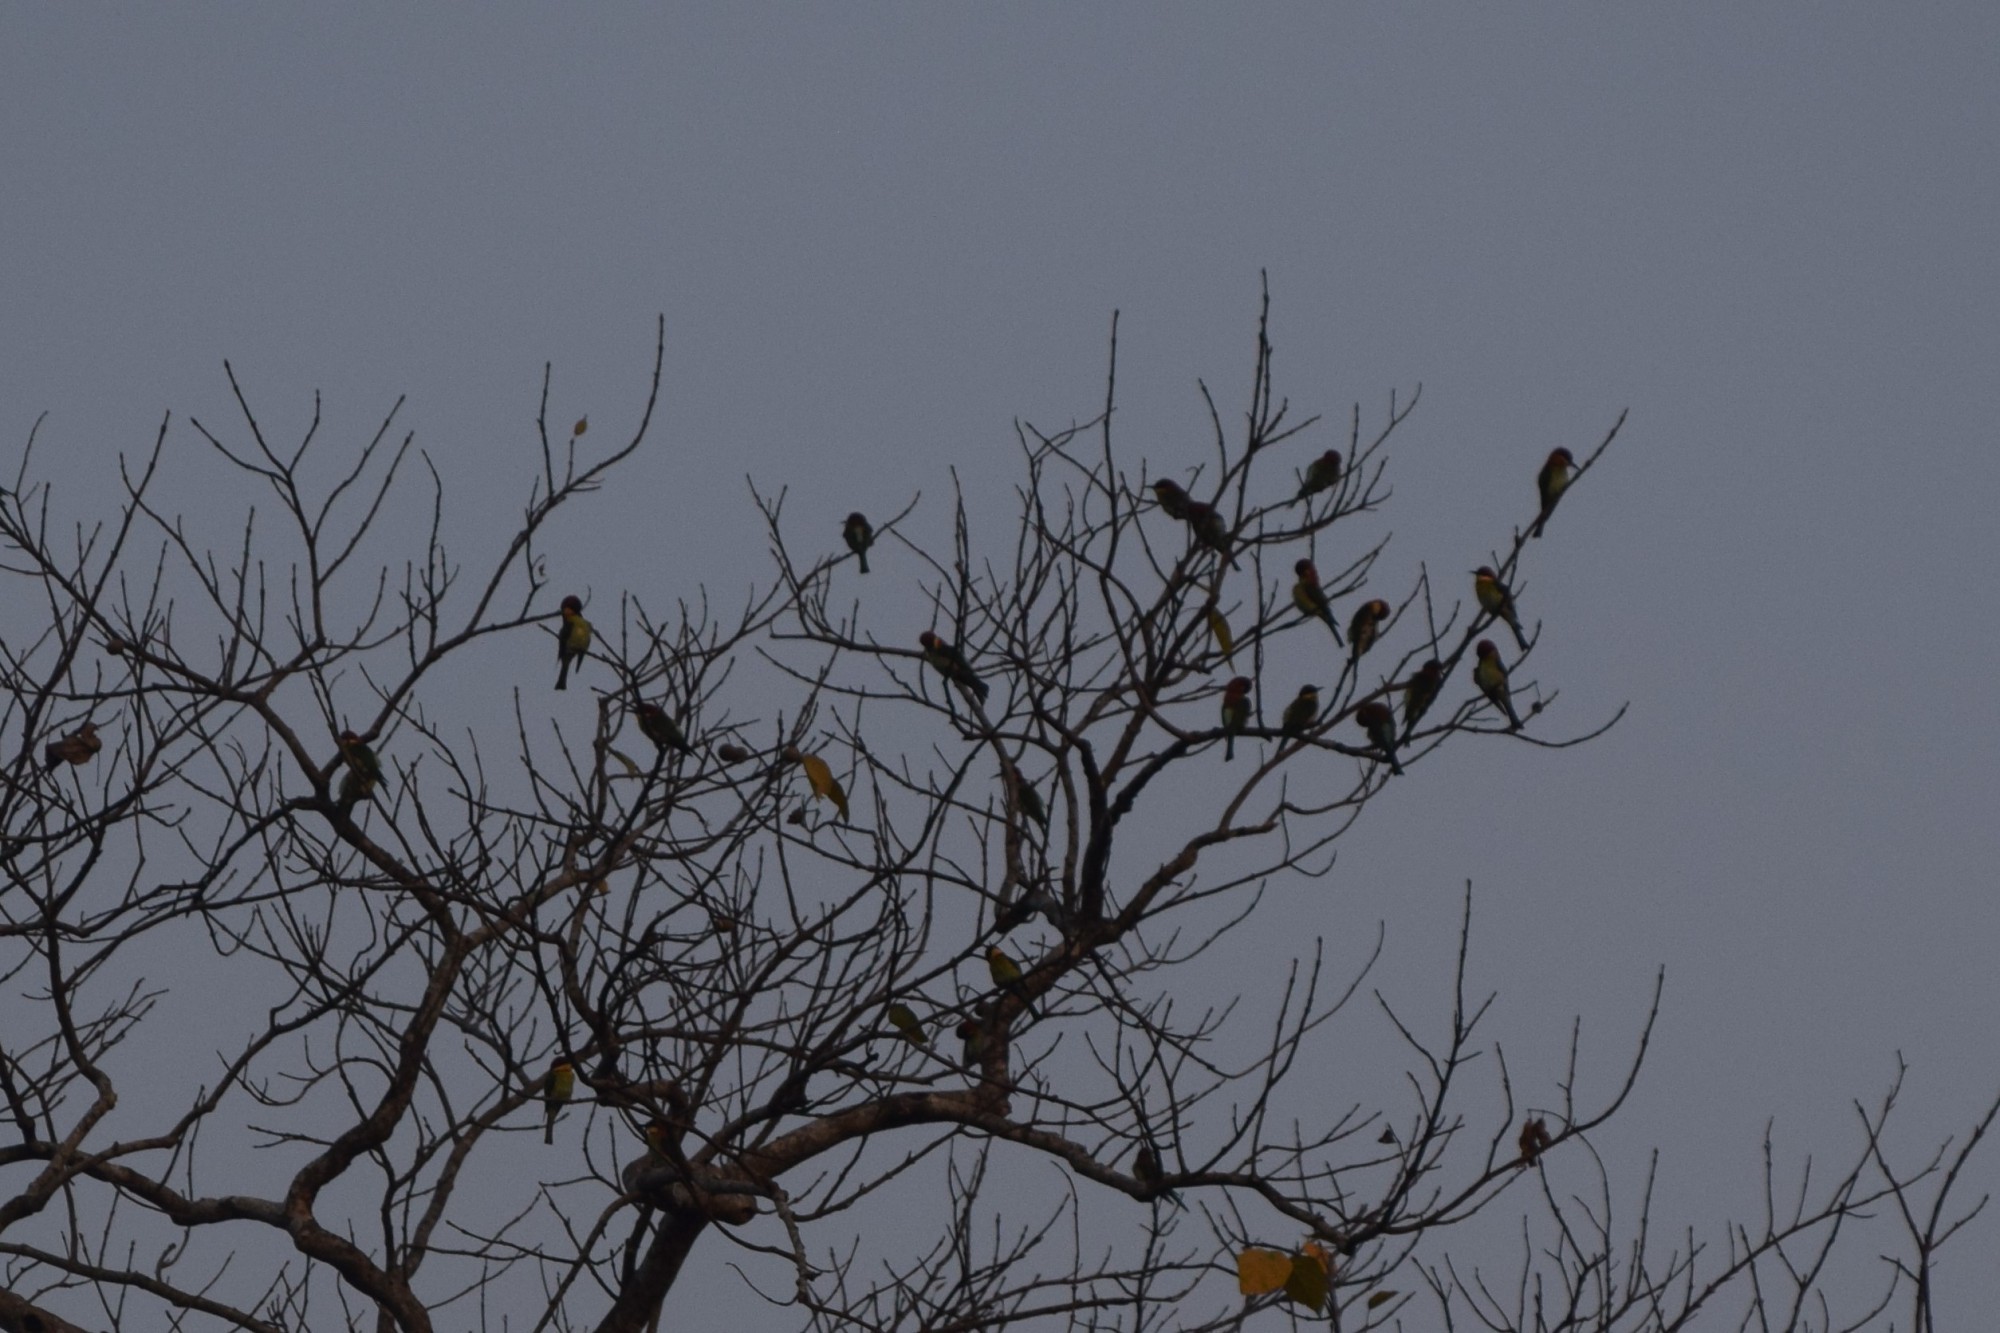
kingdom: Animalia
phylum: Chordata
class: Aves
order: Coraciiformes
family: Meropidae
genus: Merops
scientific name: Merops leschenaulti
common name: Chestnut-headed bee-eater
